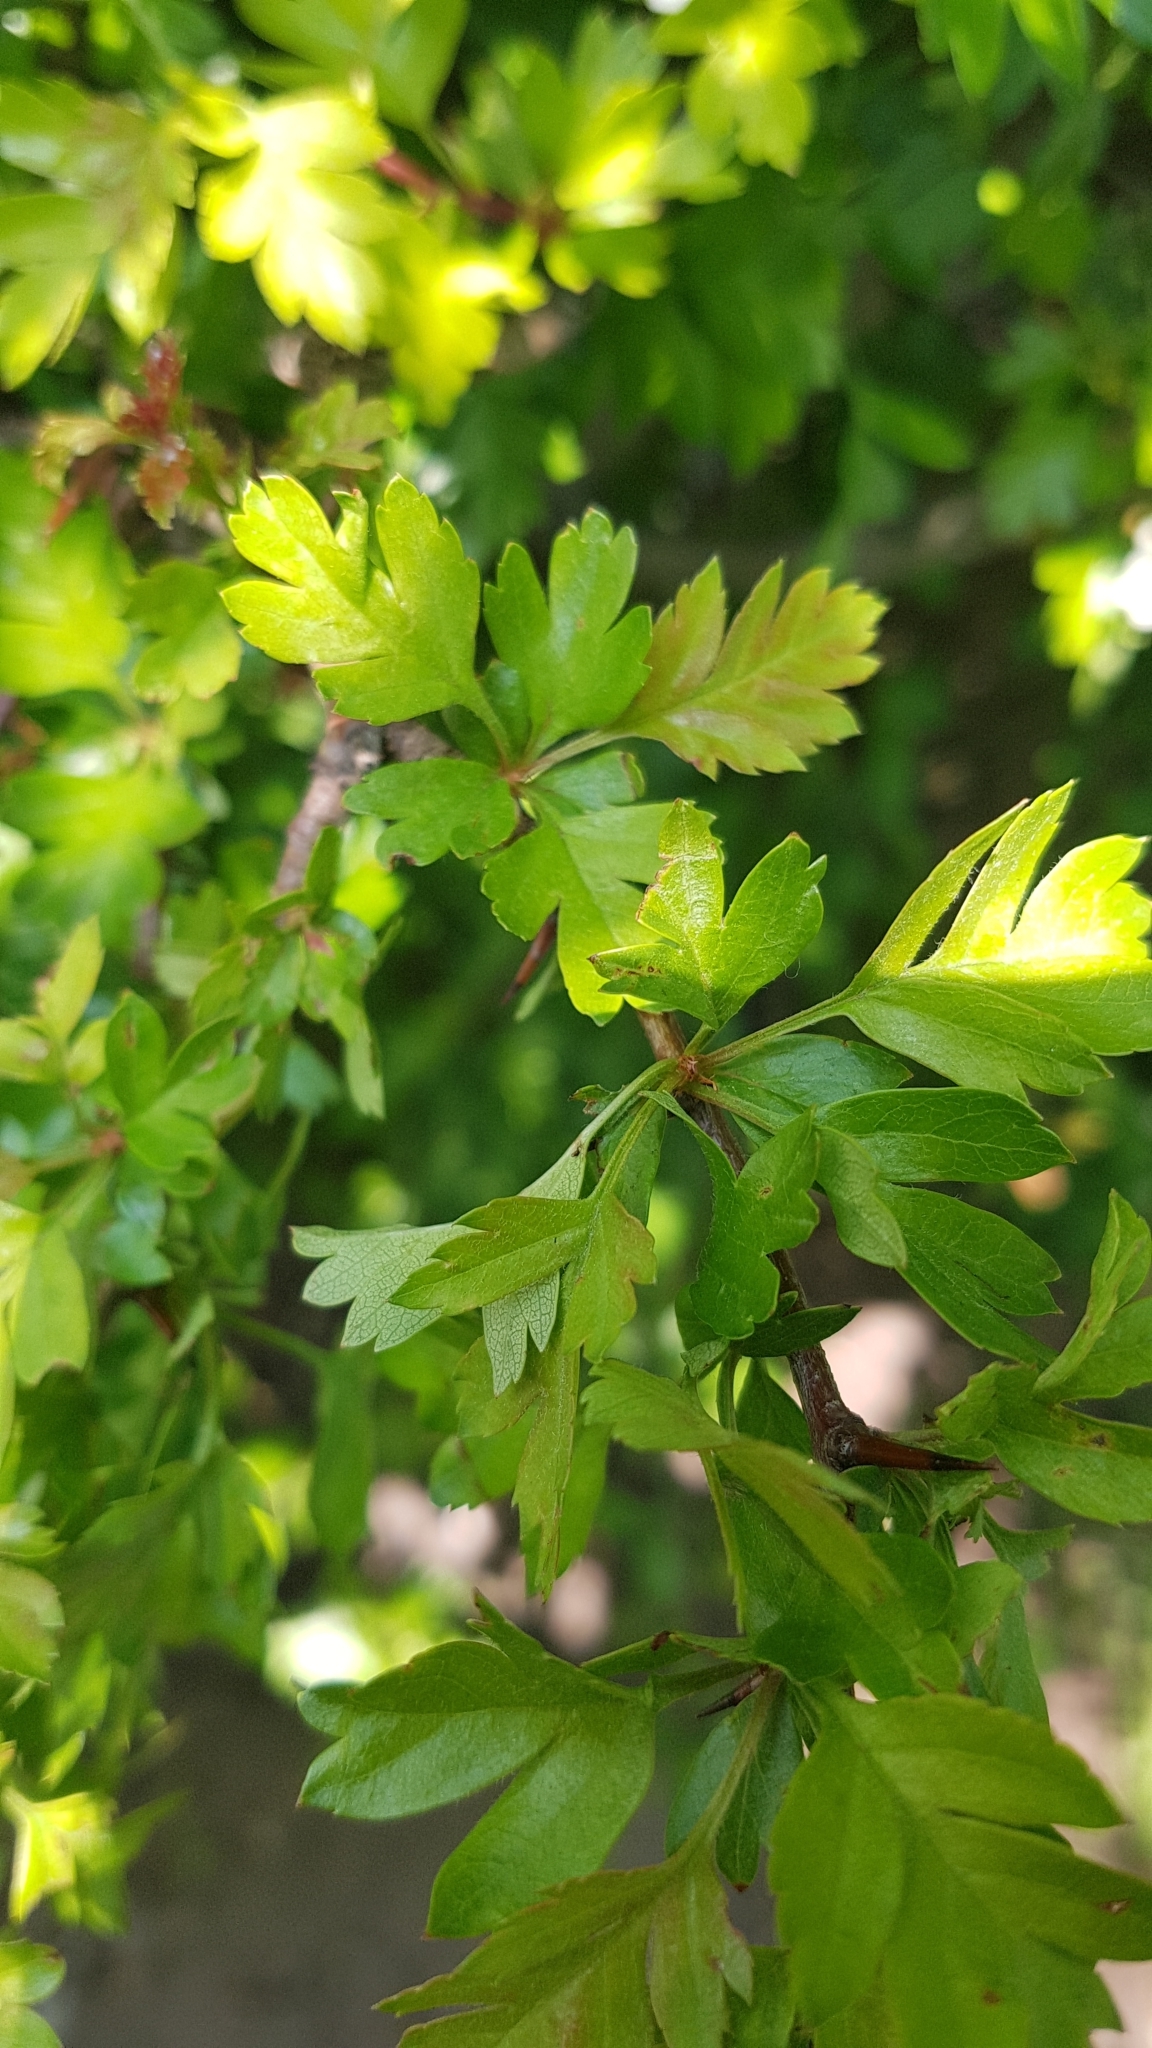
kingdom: Plantae
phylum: Tracheophyta
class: Magnoliopsida
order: Rosales
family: Rosaceae
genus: Crataegus
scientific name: Crataegus monogyna
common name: Hawthorn
